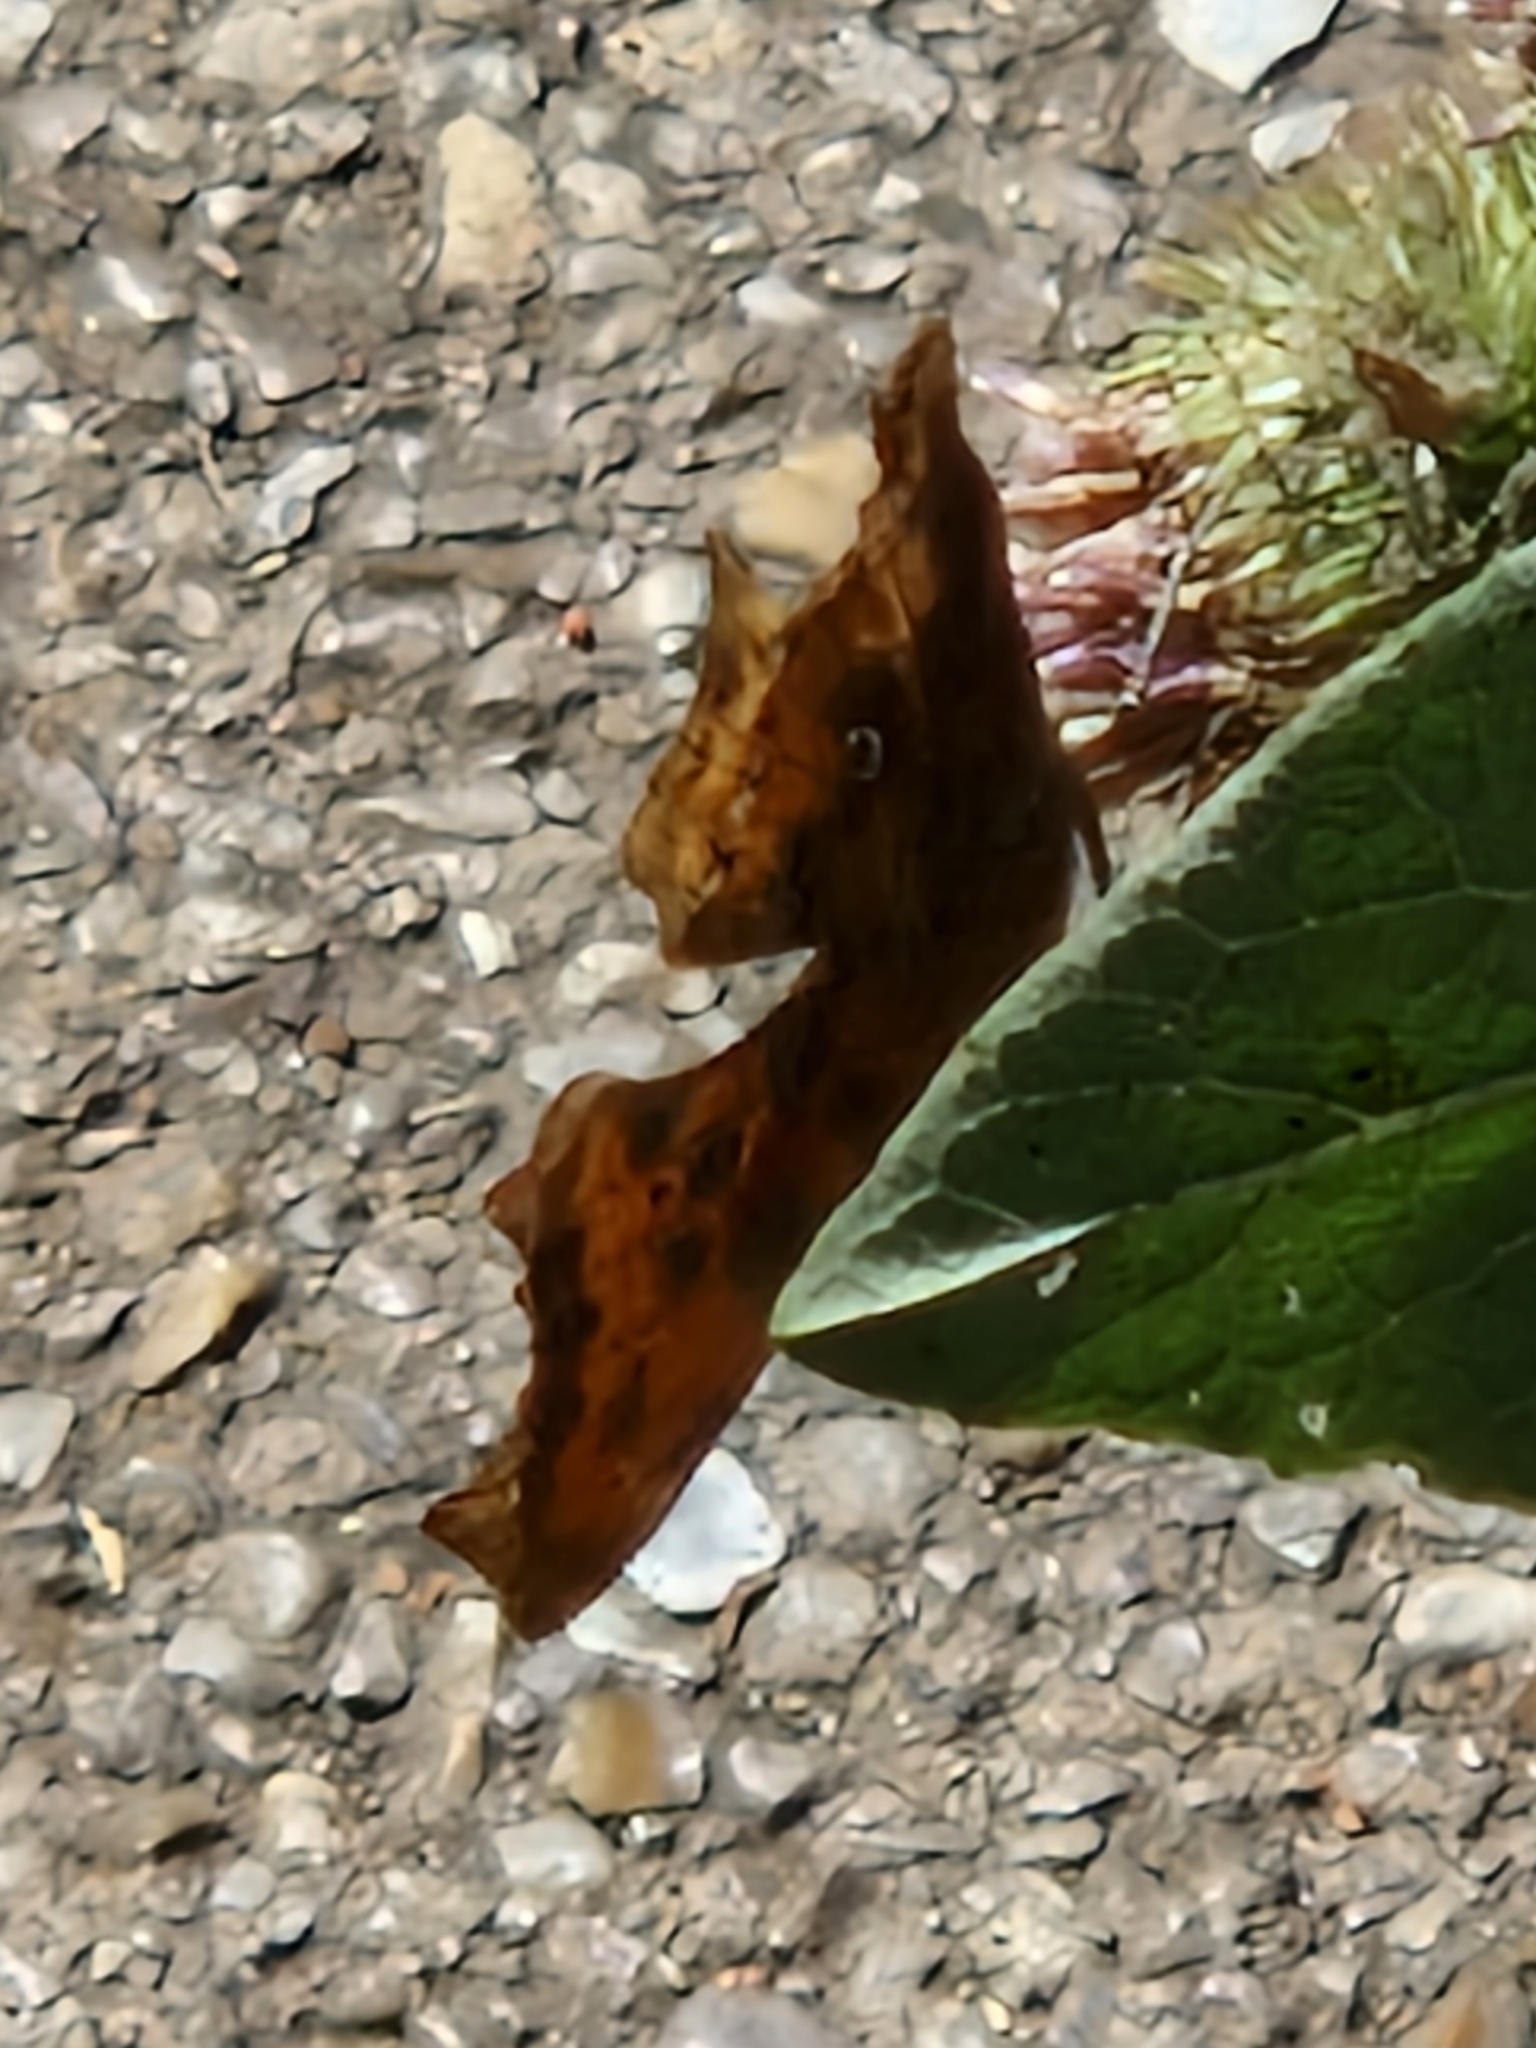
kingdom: Animalia
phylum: Arthropoda
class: Insecta
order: Lepidoptera
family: Nymphalidae
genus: Polygonia
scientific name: Polygonia c-album
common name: Comma
